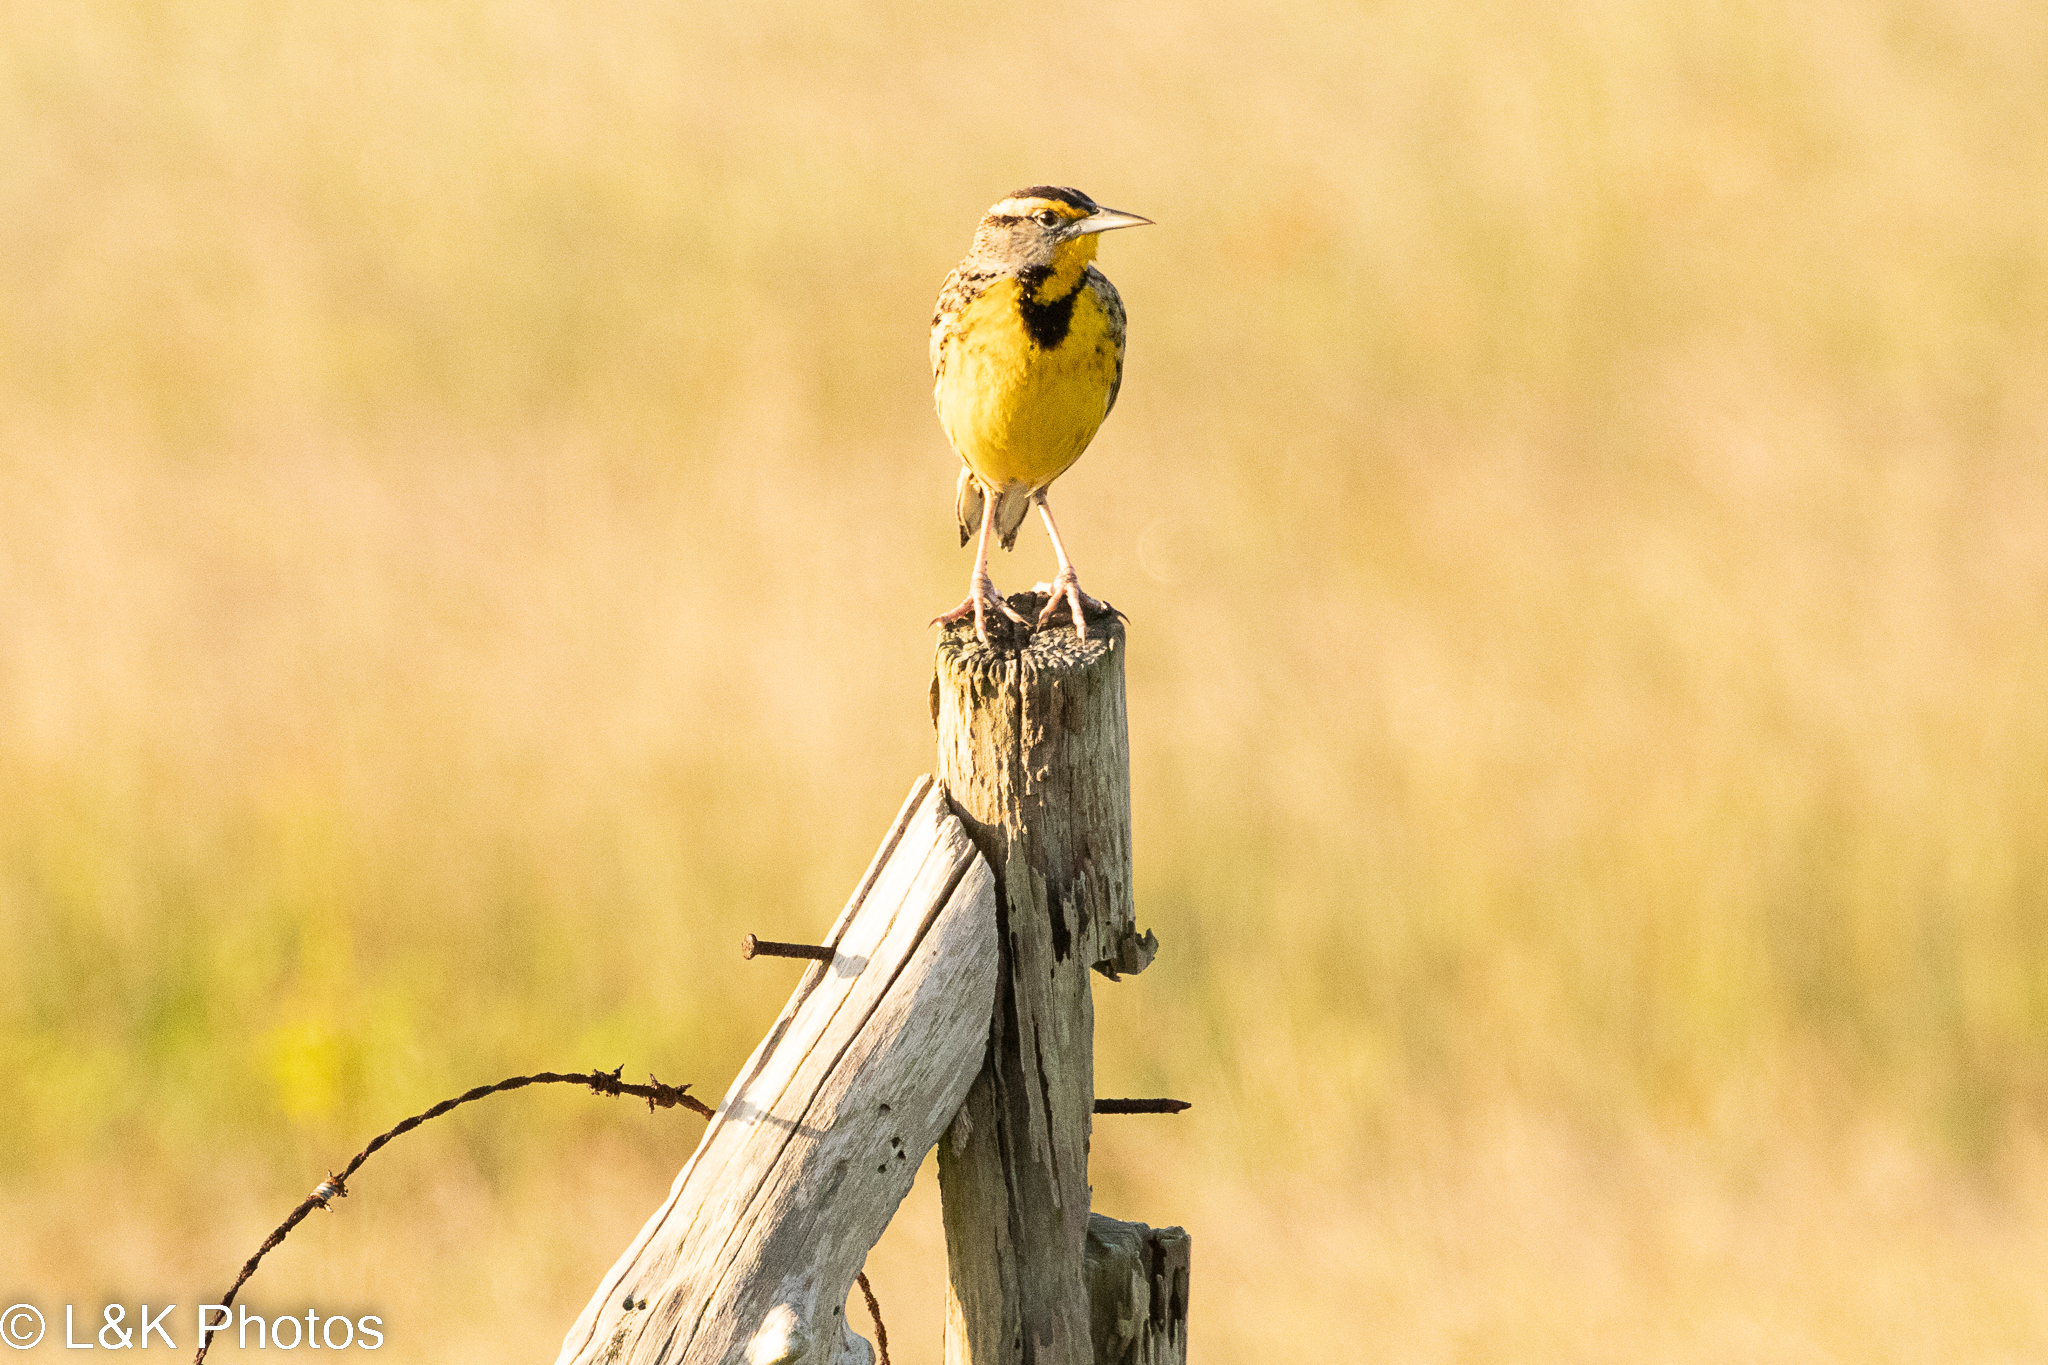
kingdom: Animalia
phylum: Chordata
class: Aves
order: Passeriformes
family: Icteridae
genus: Sturnella
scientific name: Sturnella magna
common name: Eastern meadowlark
